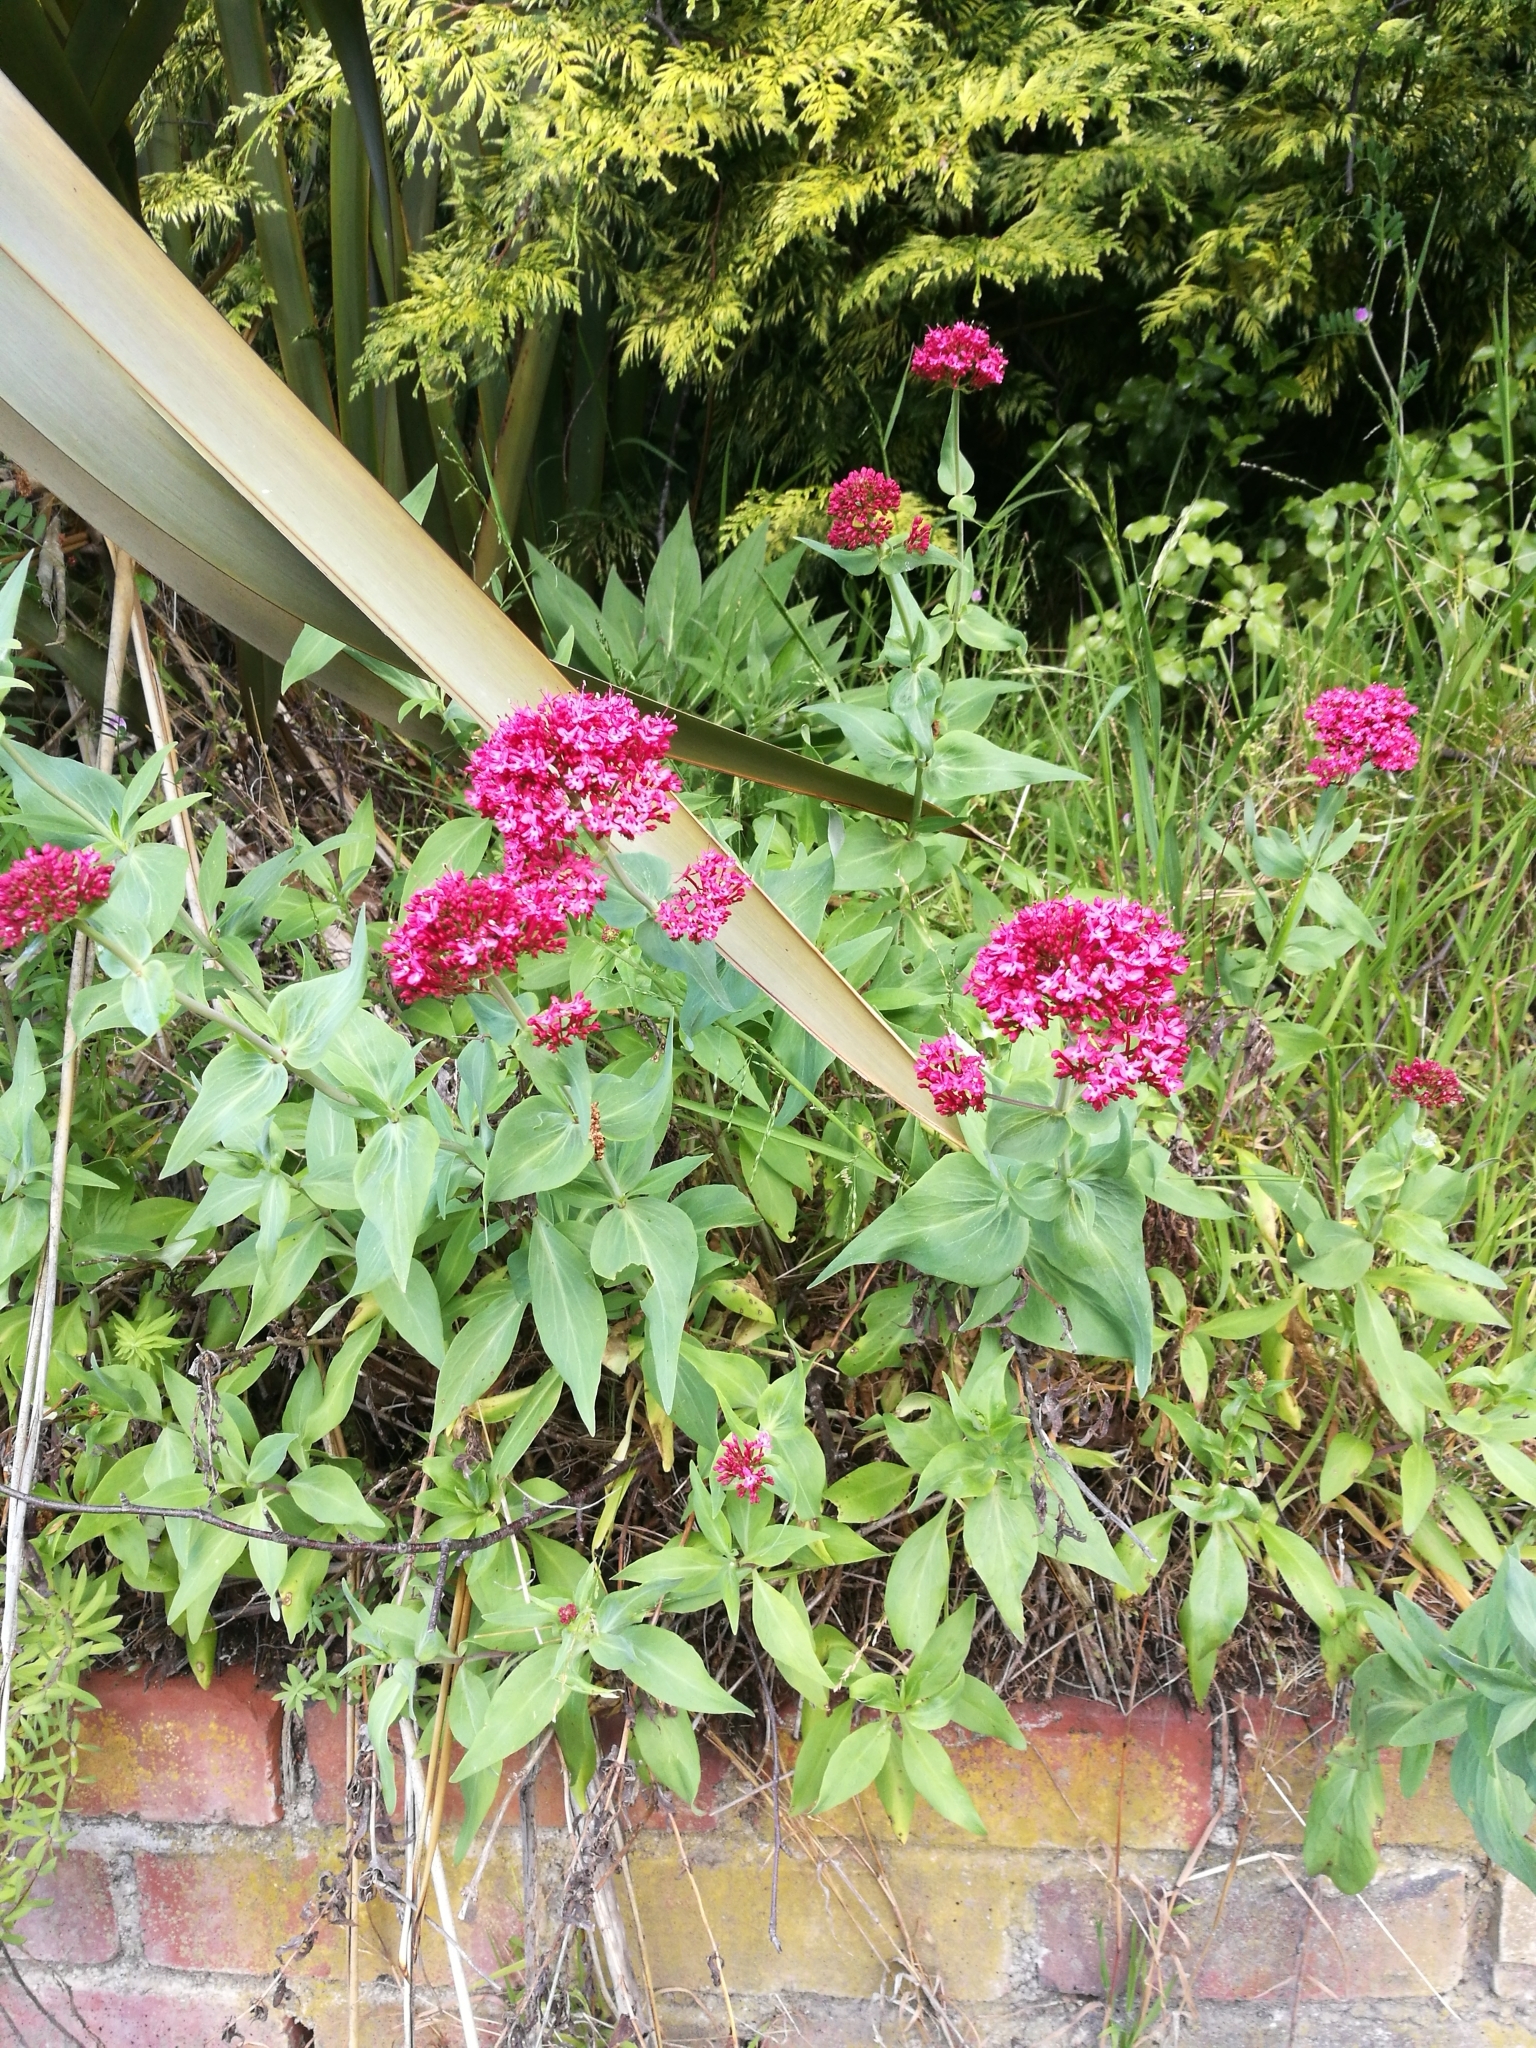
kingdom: Plantae
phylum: Tracheophyta
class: Magnoliopsida
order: Dipsacales
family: Caprifoliaceae
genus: Centranthus
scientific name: Centranthus ruber
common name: Red valerian
